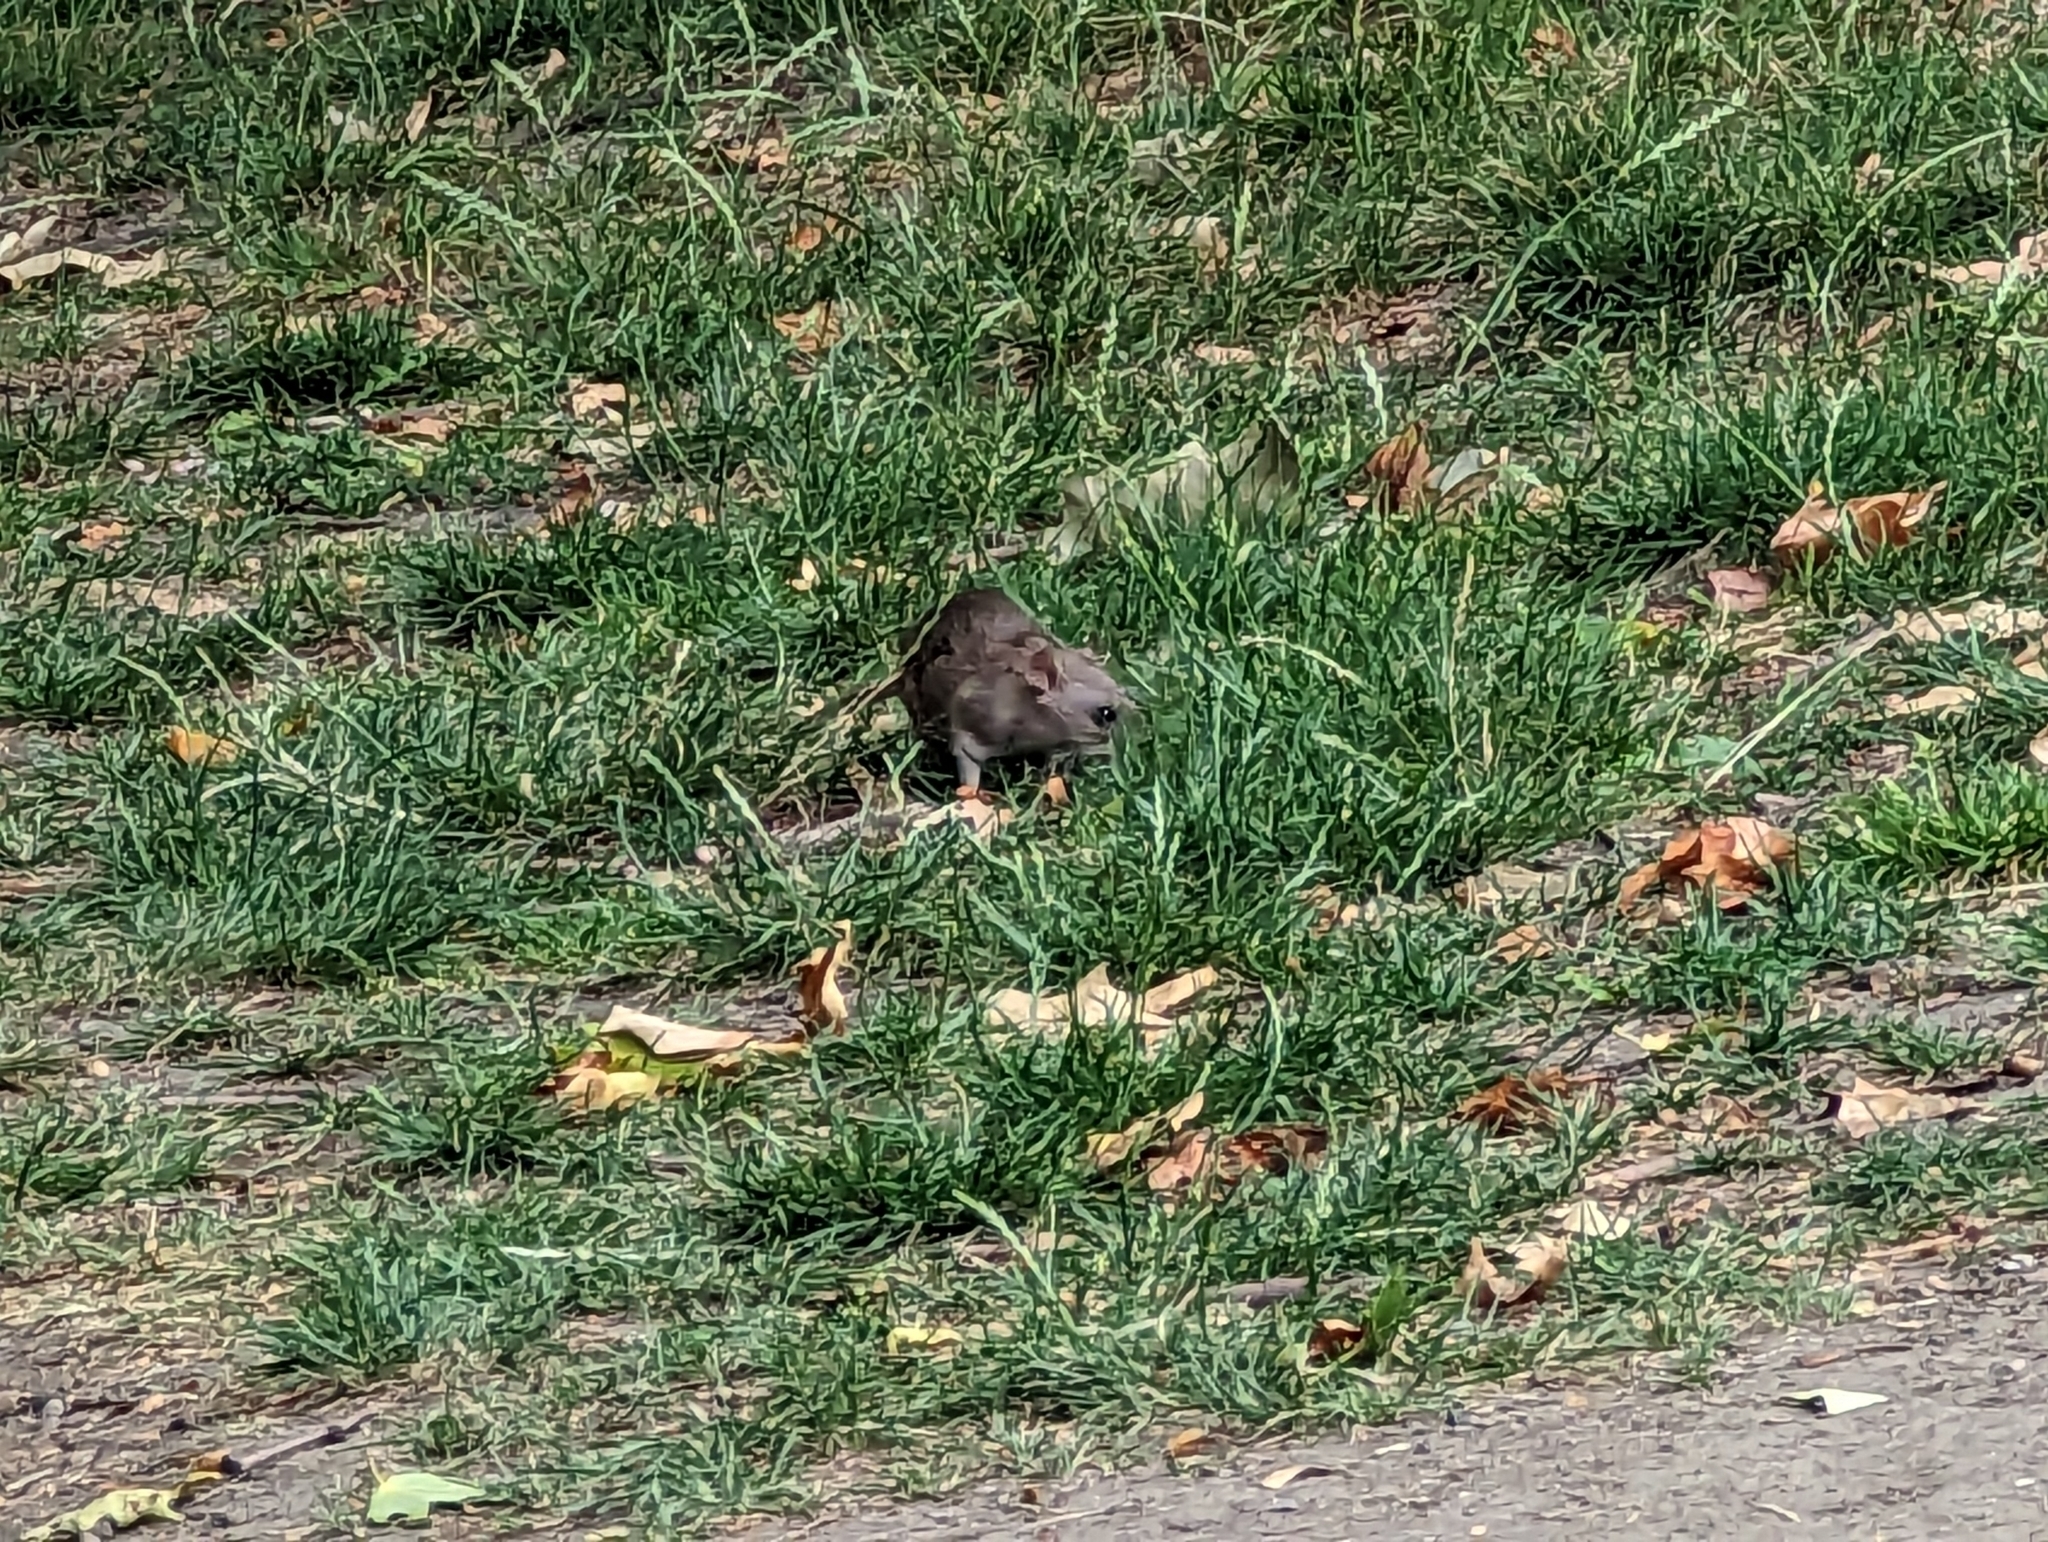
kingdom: Animalia
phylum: Chordata
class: Mammalia
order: Rodentia
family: Muridae
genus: Rattus
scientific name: Rattus norvegicus
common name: Brown rat
